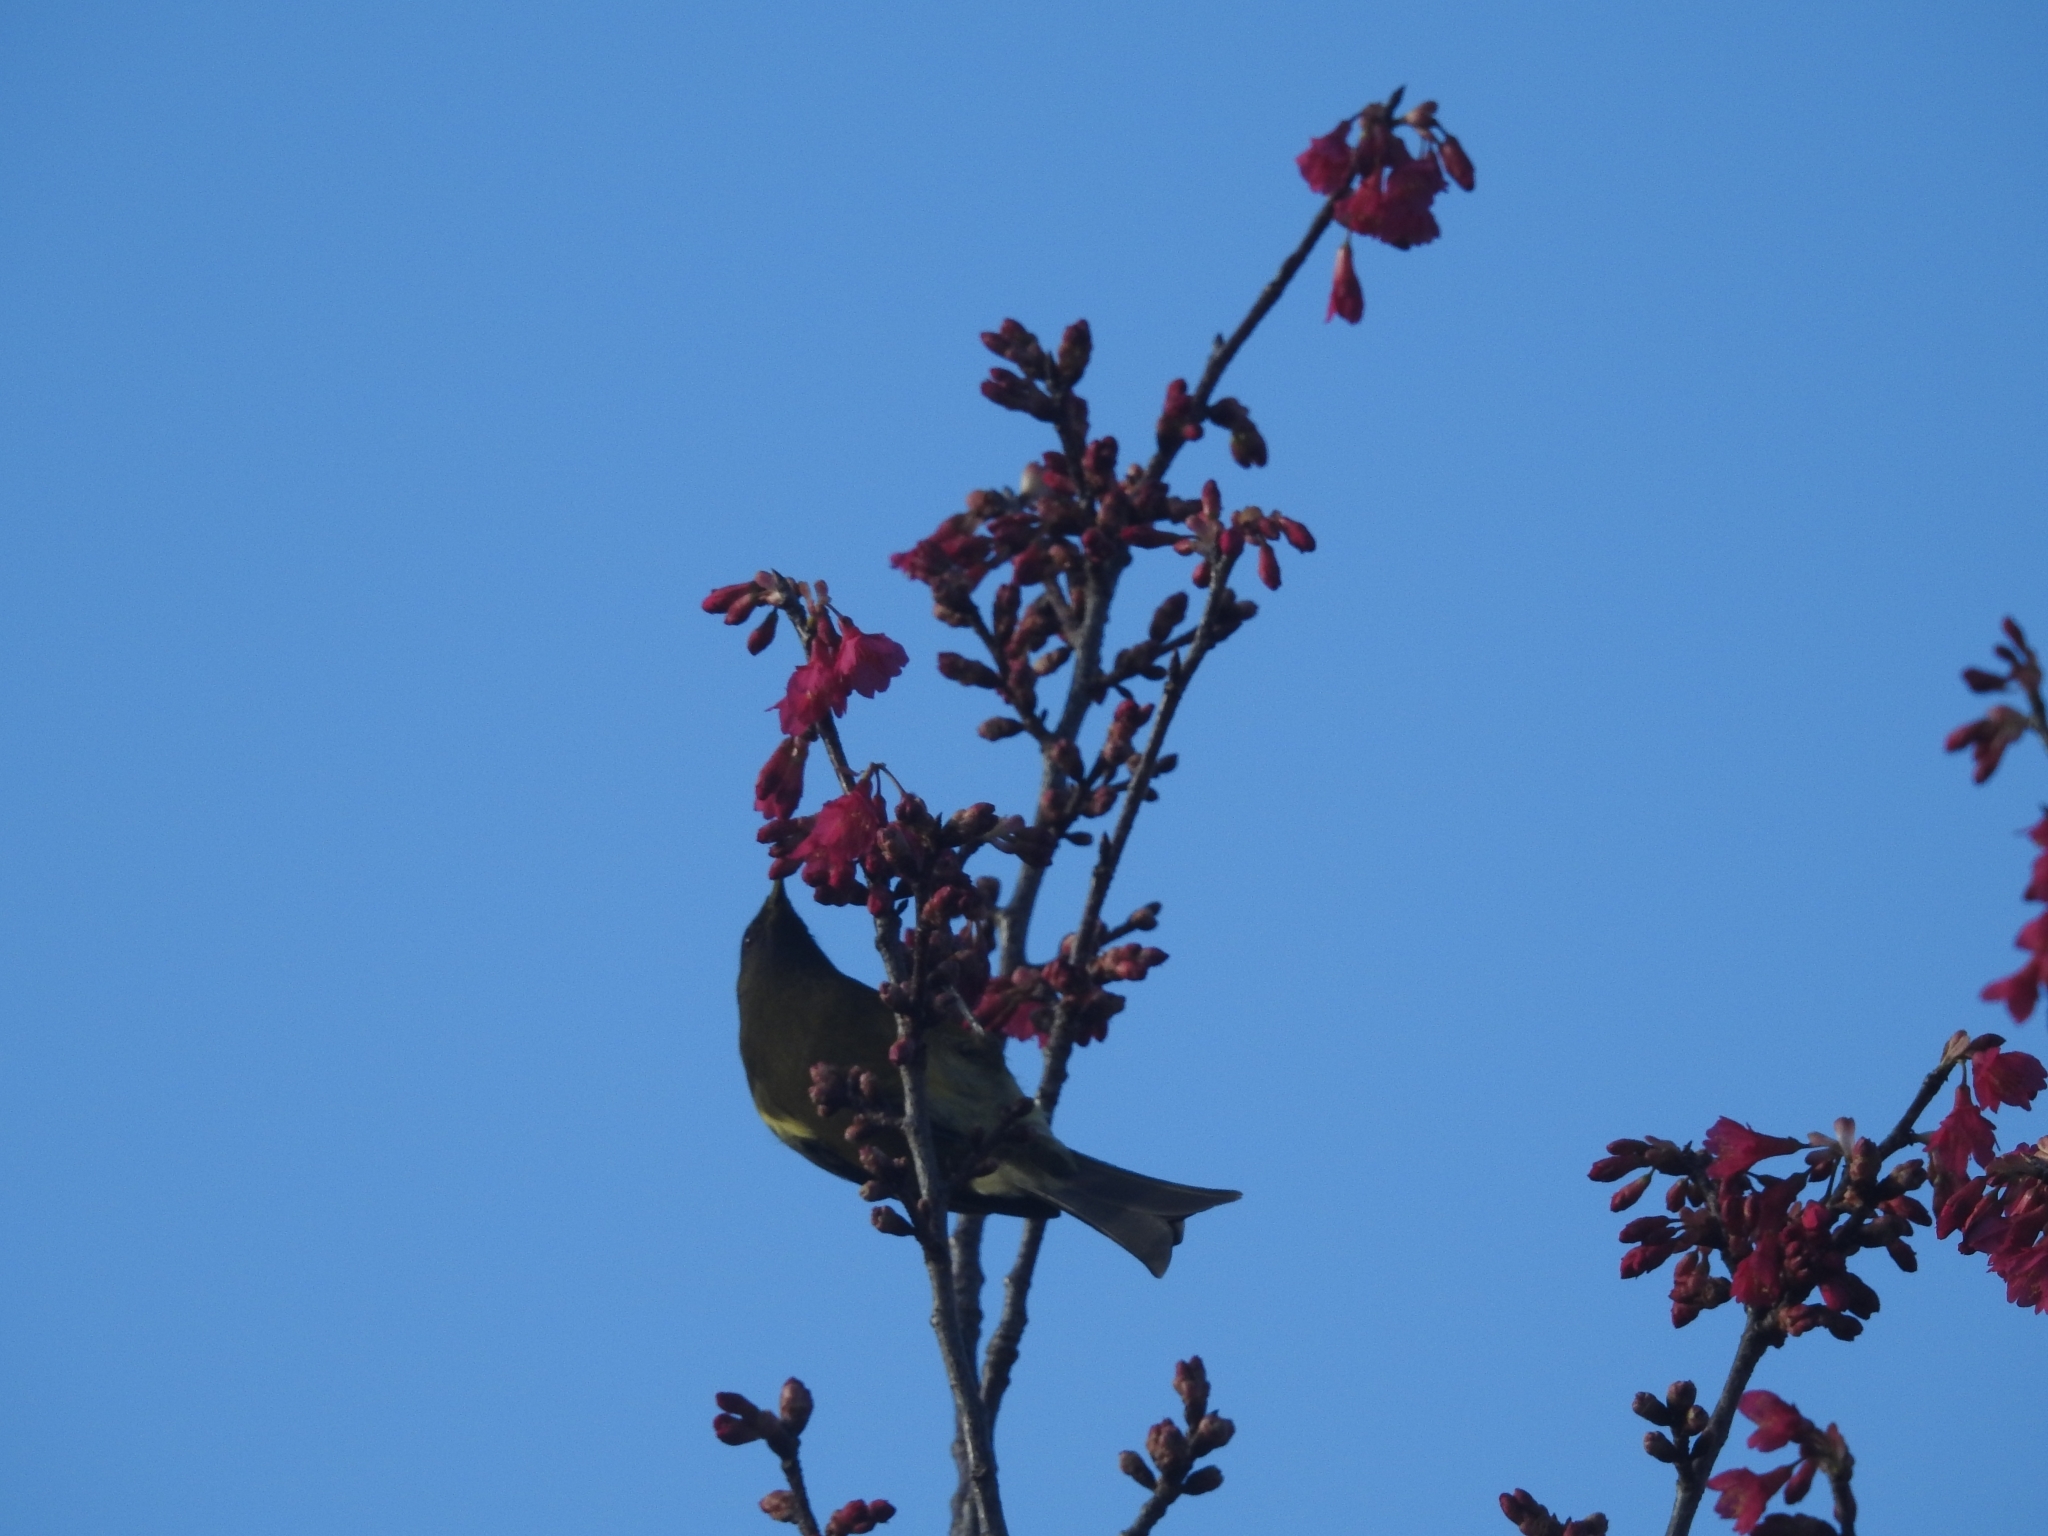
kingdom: Animalia
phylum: Chordata
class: Aves
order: Passeriformes
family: Meliphagidae
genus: Anthornis
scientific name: Anthornis melanura
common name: New zealand bellbird
